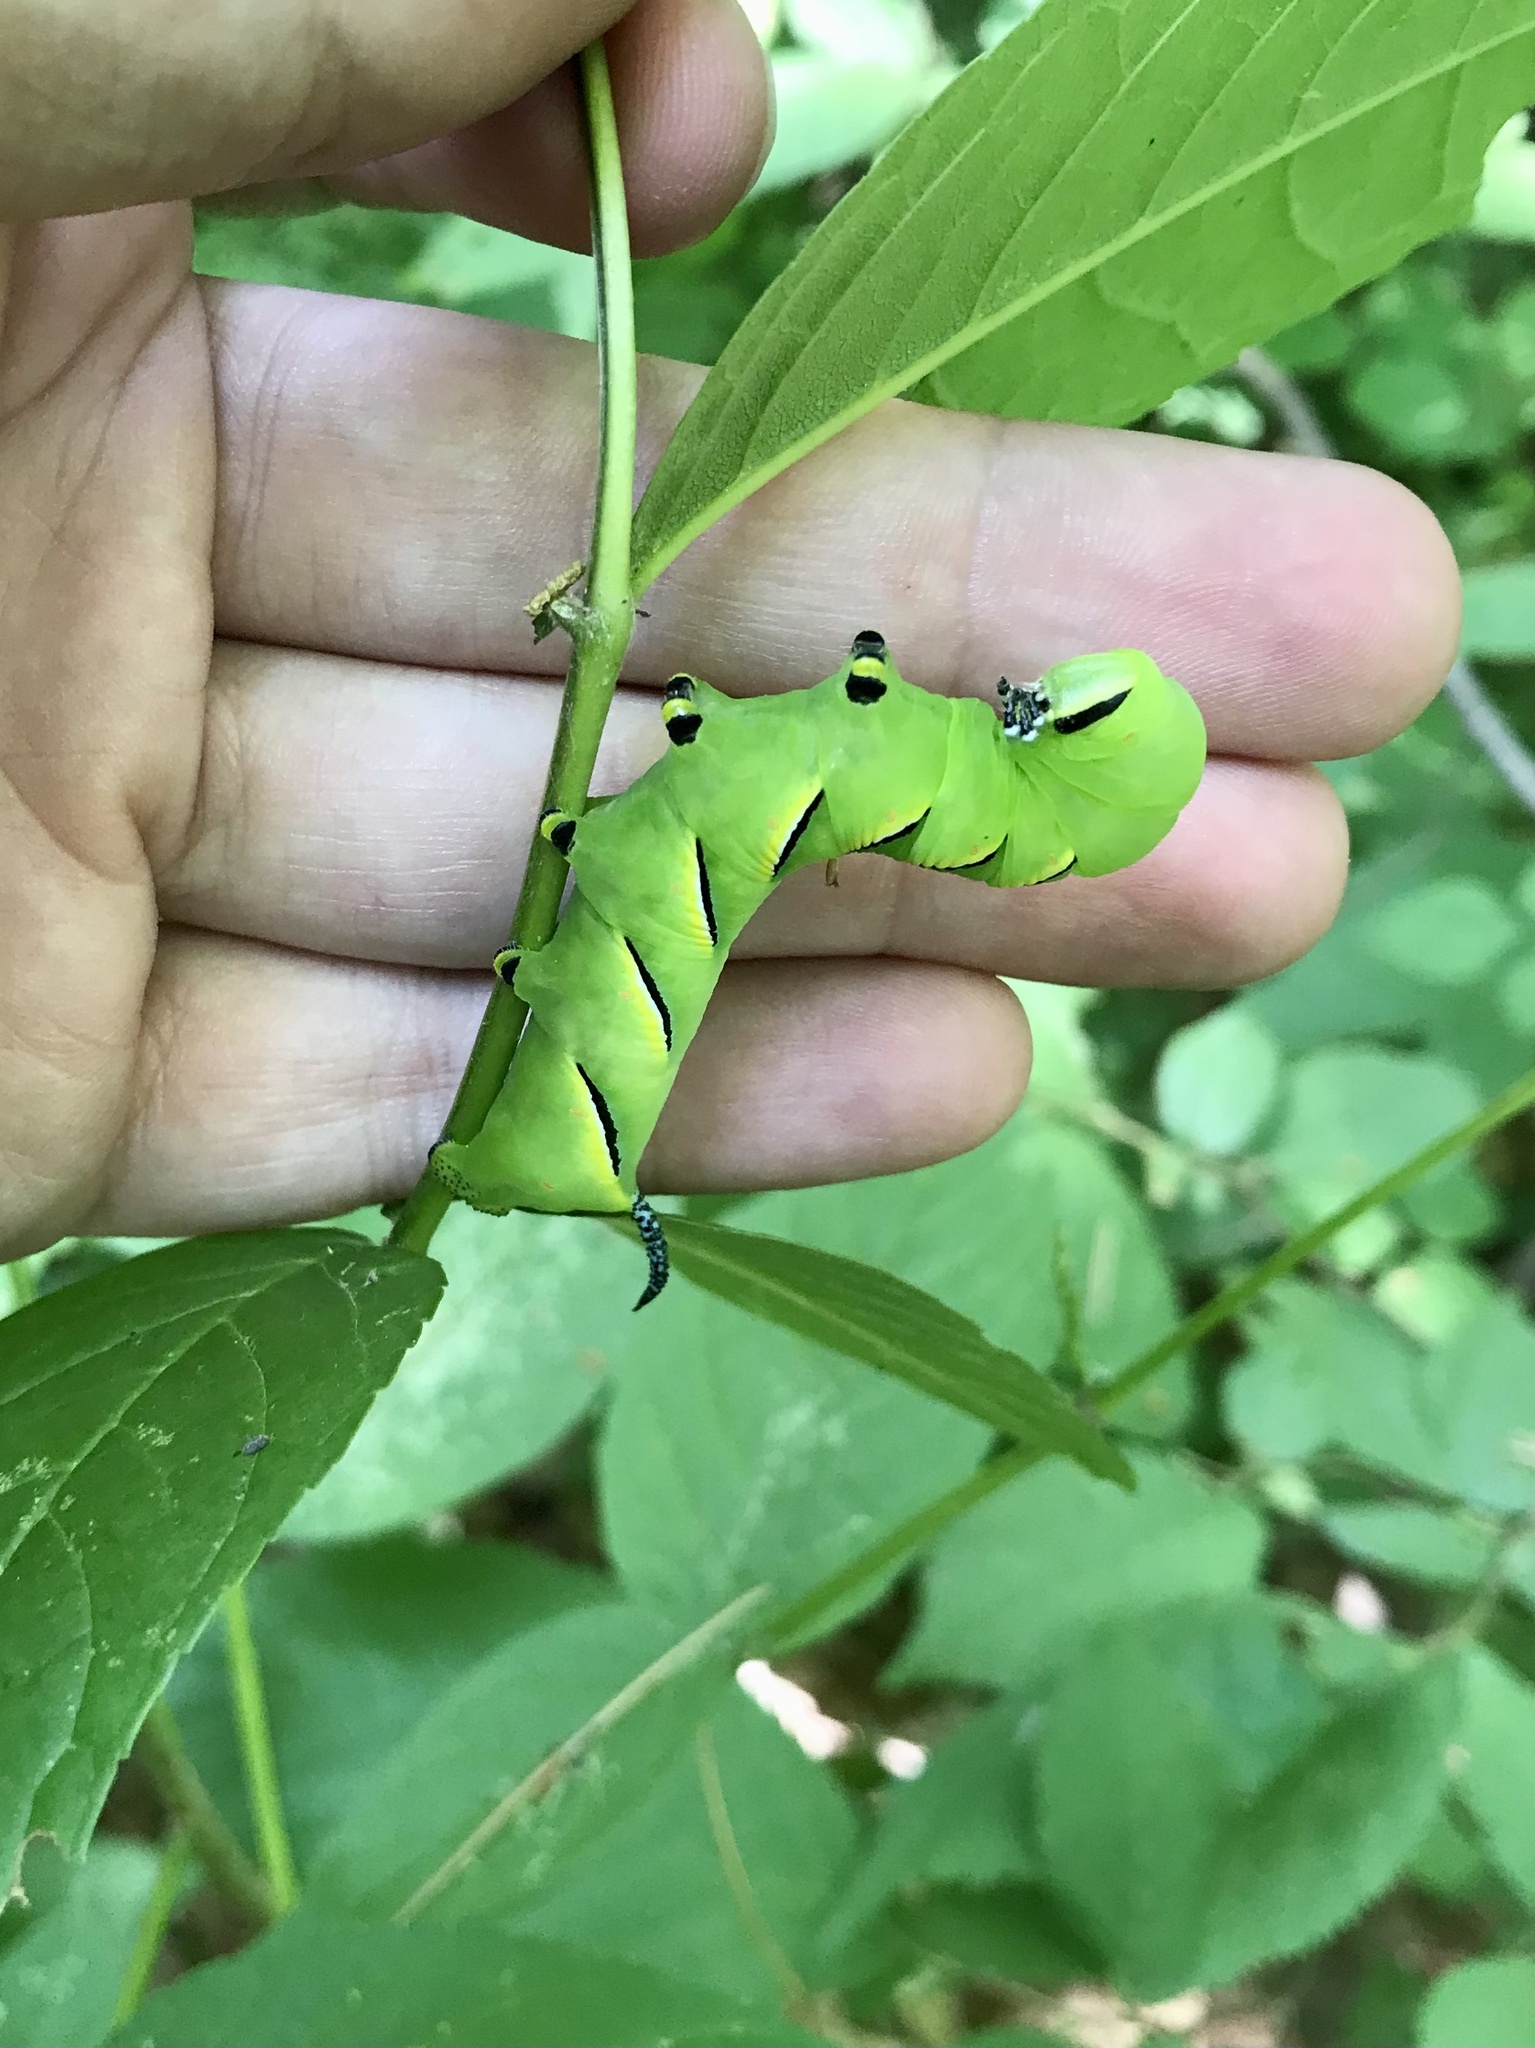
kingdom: Animalia
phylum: Arthropoda
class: Insecta
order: Lepidoptera
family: Sphingidae
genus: Sphinx
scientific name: Sphinx kalmiae
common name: Laurel sphinx
